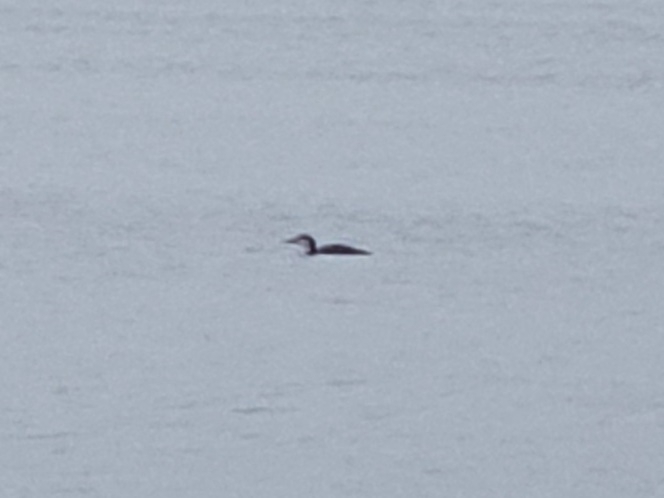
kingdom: Animalia
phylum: Chordata
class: Aves
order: Gaviiformes
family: Gaviidae
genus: Gavia
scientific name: Gavia immer
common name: Common loon
